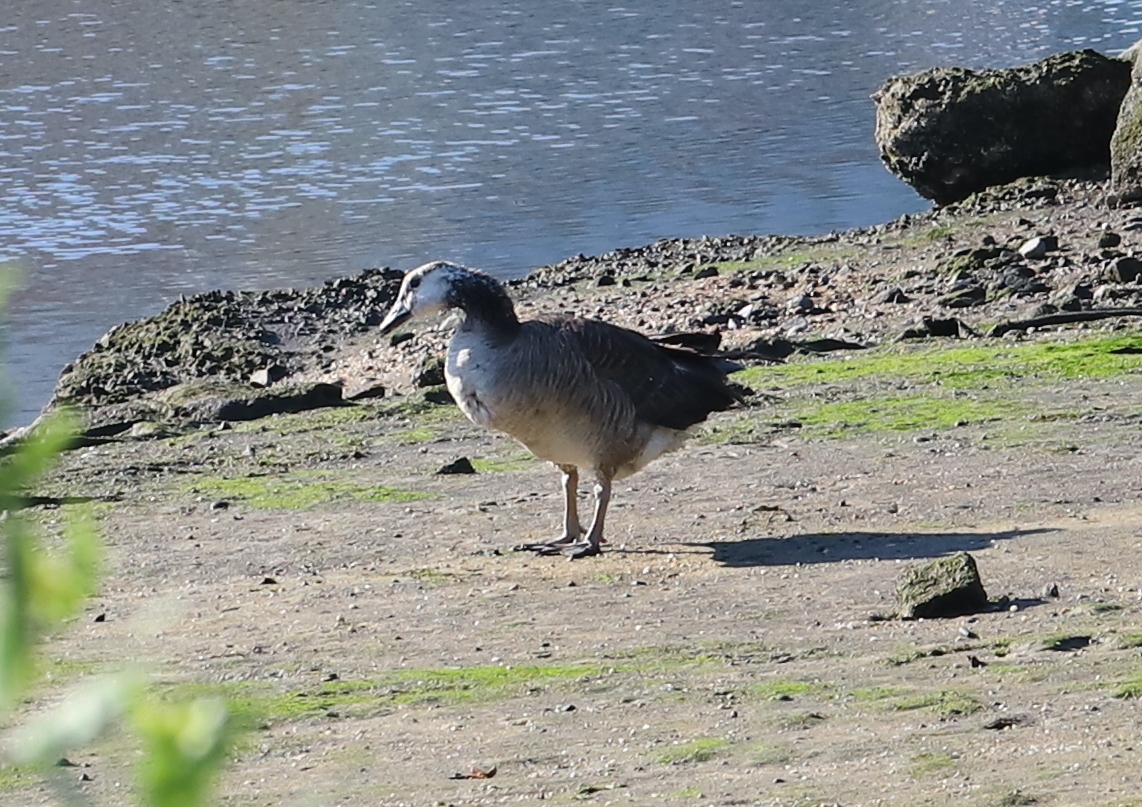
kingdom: Animalia
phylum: Chordata
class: Aves
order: Anseriformes
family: Anatidae
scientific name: Anatidae
